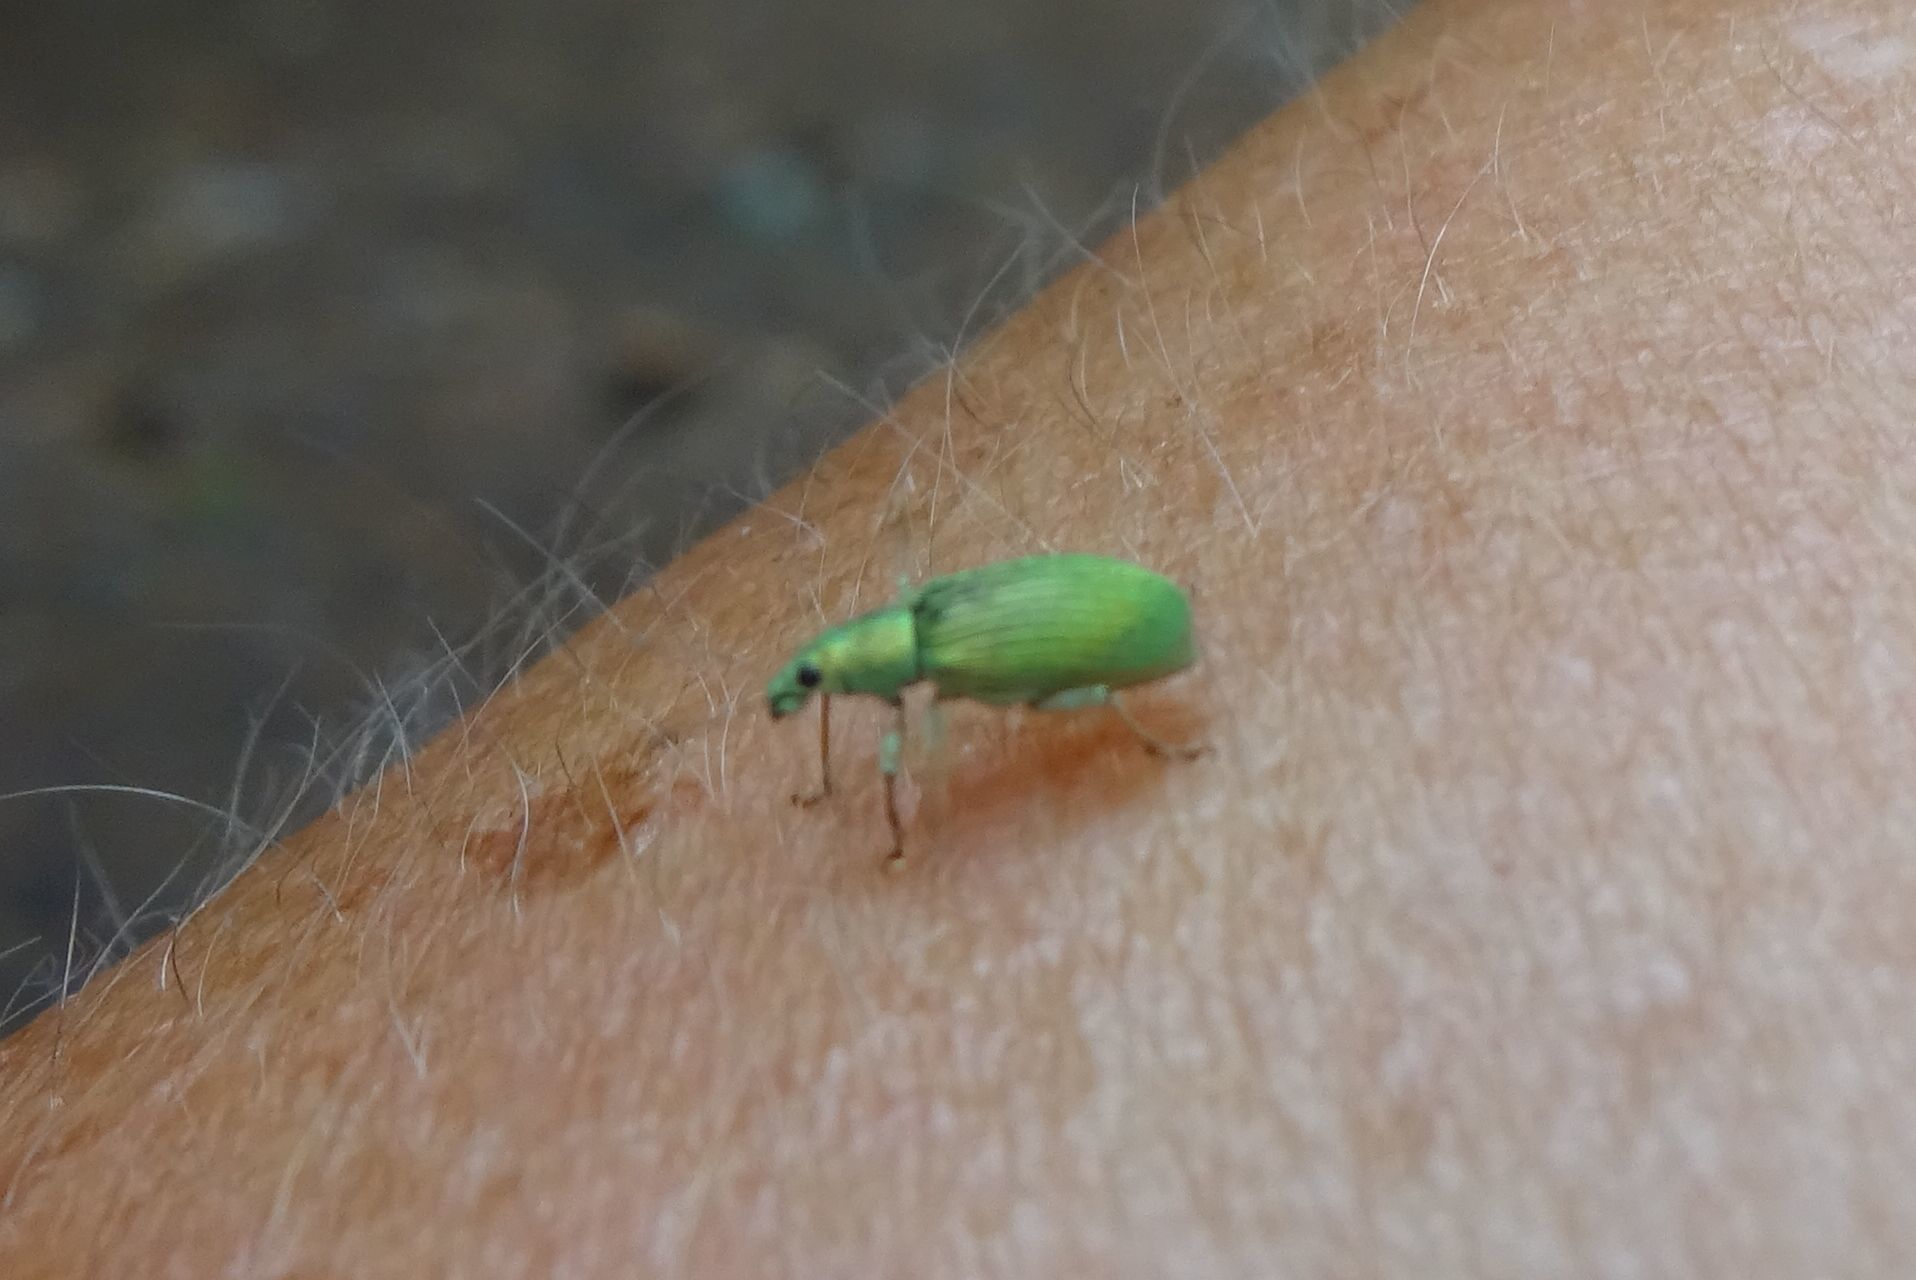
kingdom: Animalia
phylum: Arthropoda
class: Insecta
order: Coleoptera
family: Curculionidae
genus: Polydrusus
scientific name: Polydrusus formosus
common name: Weevil
